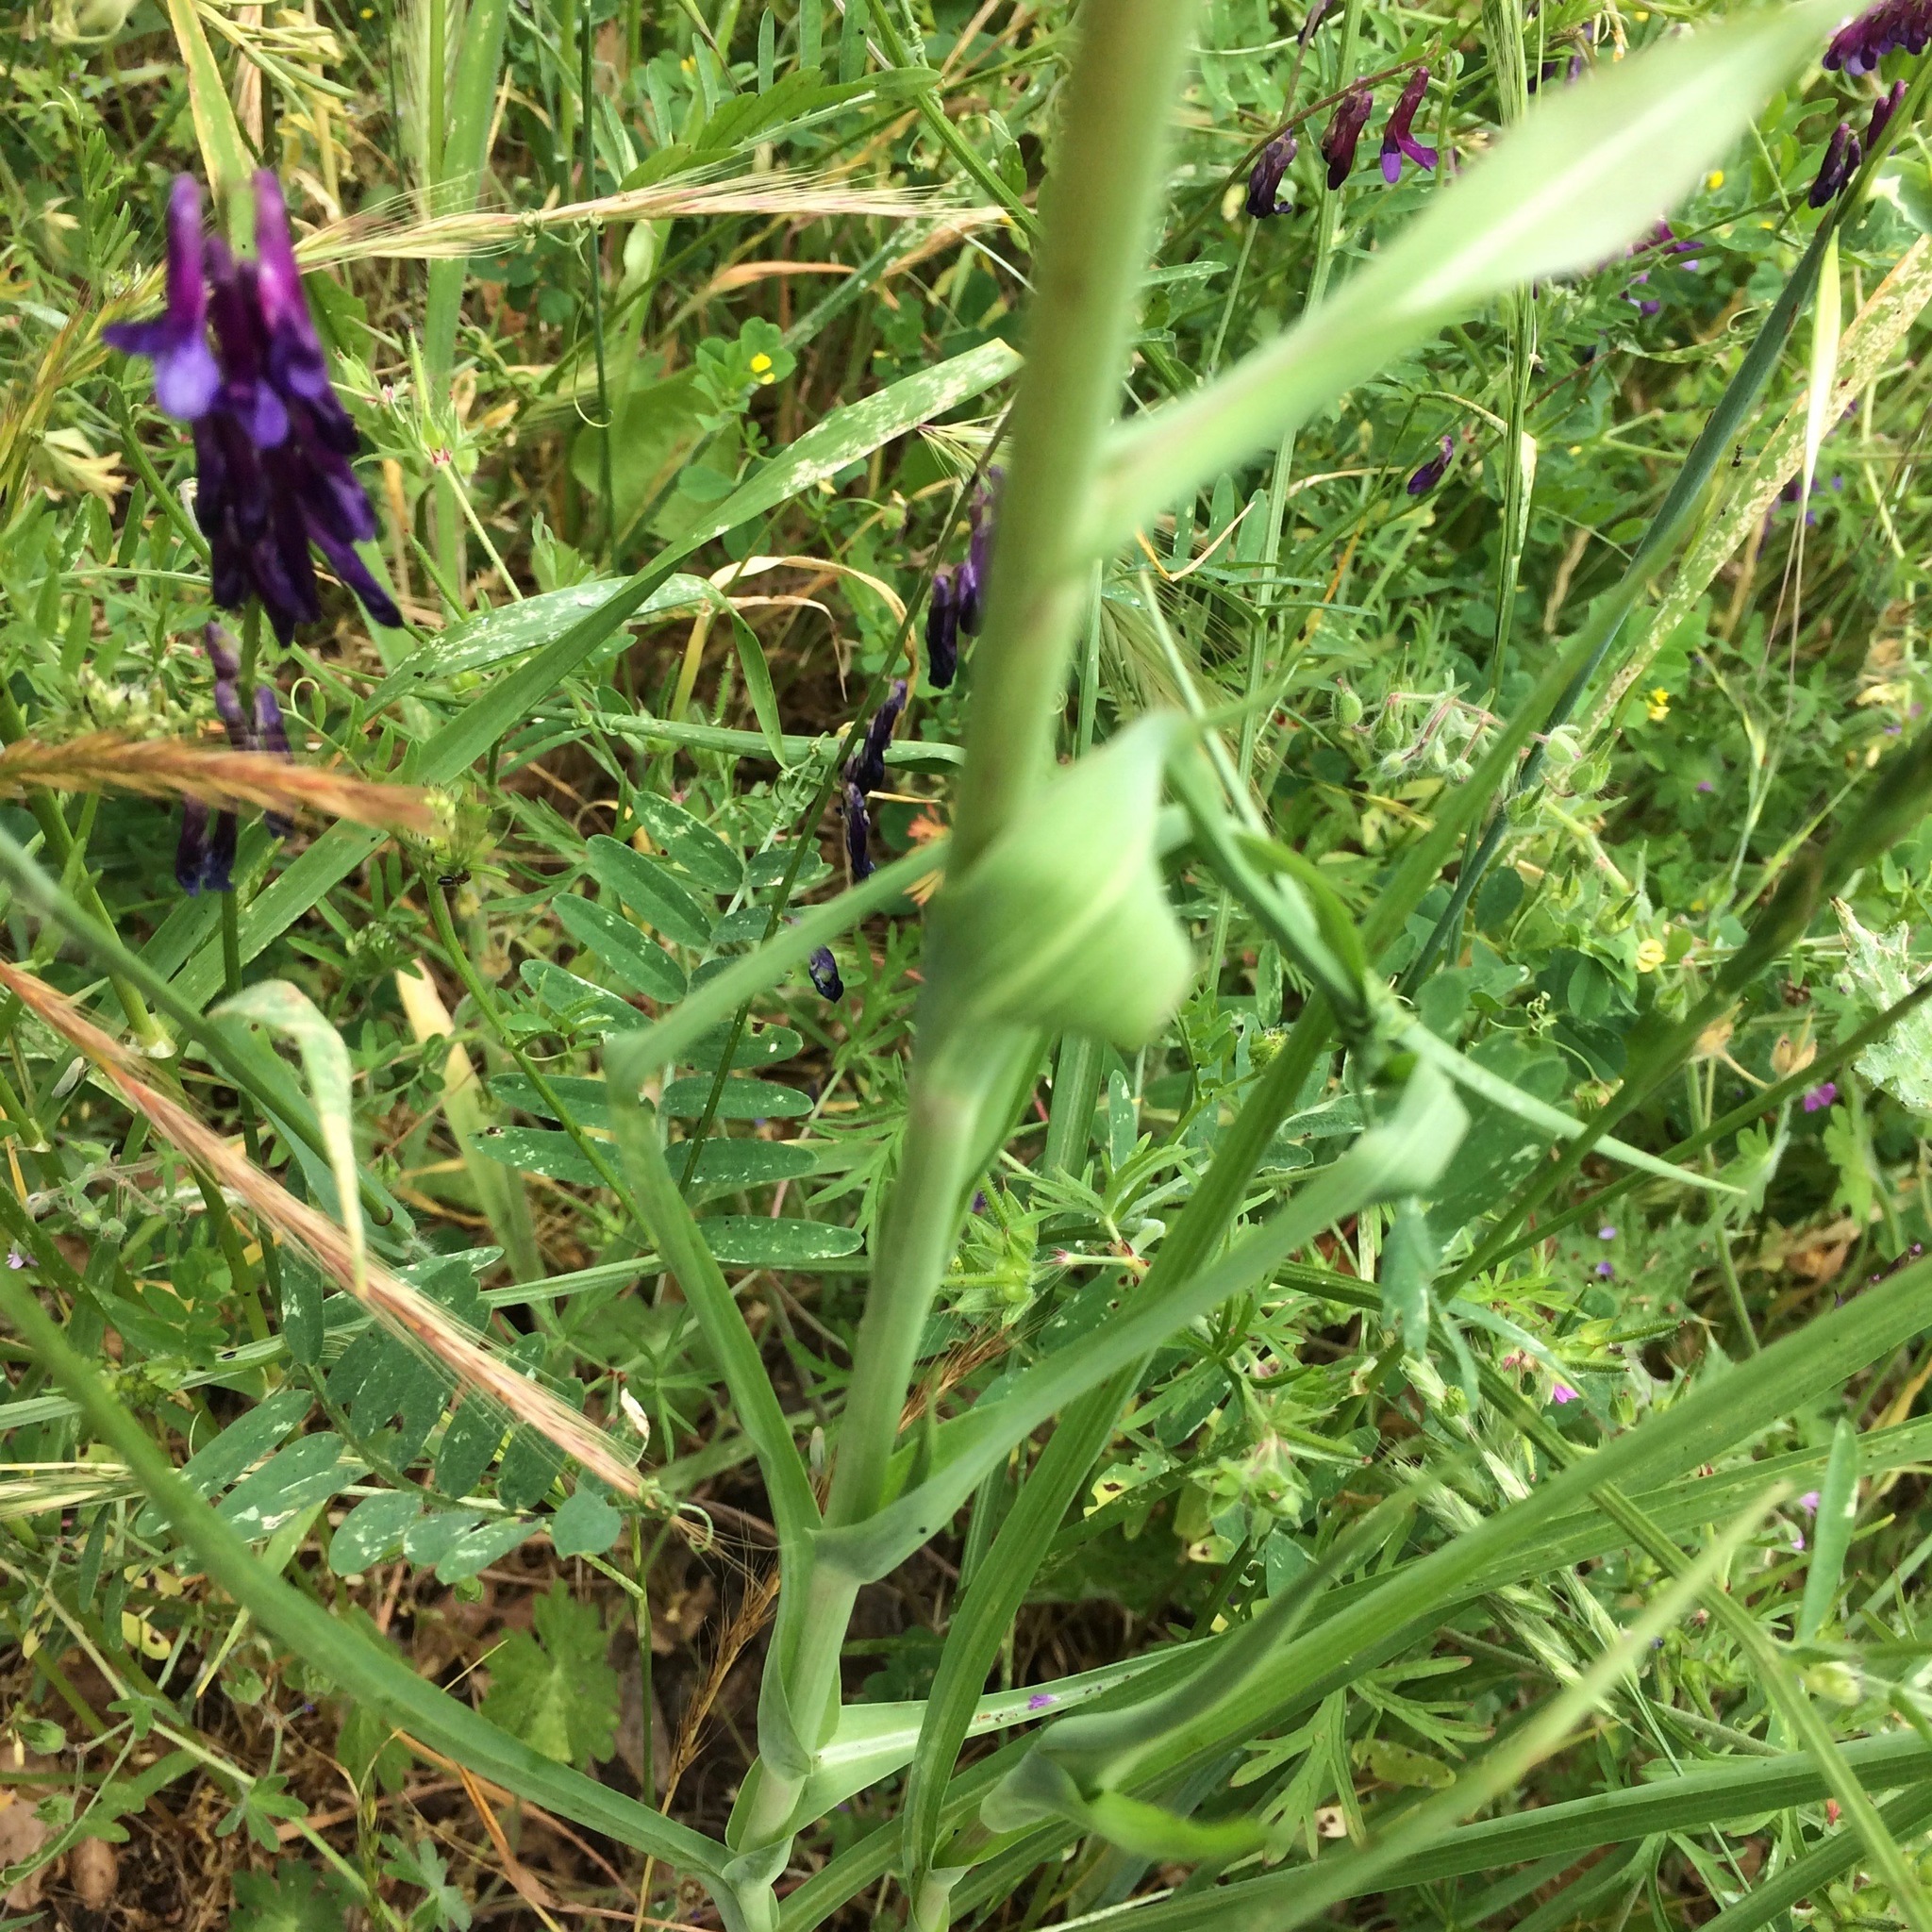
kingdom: Plantae
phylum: Tracheophyta
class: Magnoliopsida
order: Asterales
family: Asteraceae
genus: Tragopogon
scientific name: Tragopogon porrifolius
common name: Salsify
